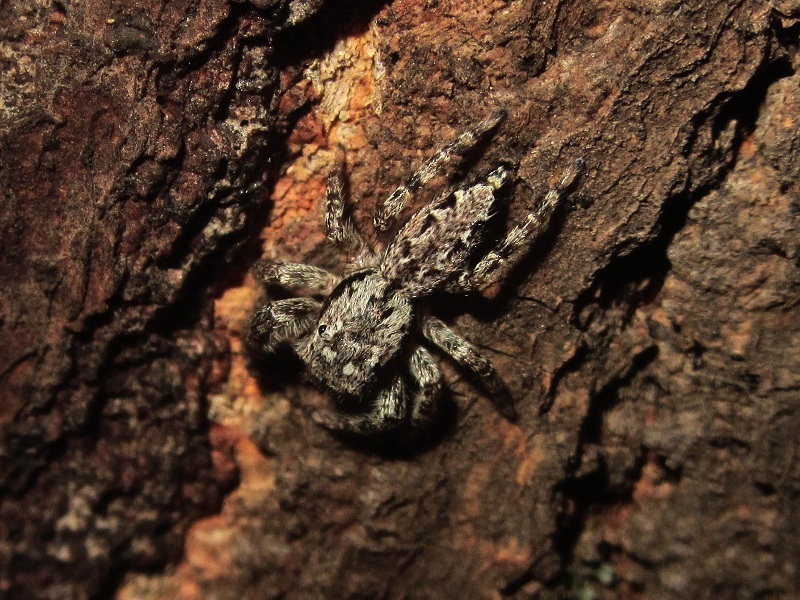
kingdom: Animalia
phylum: Arthropoda
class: Arachnida
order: Araneae
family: Salticidae
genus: Marpissa
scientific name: Marpissa muscosa
